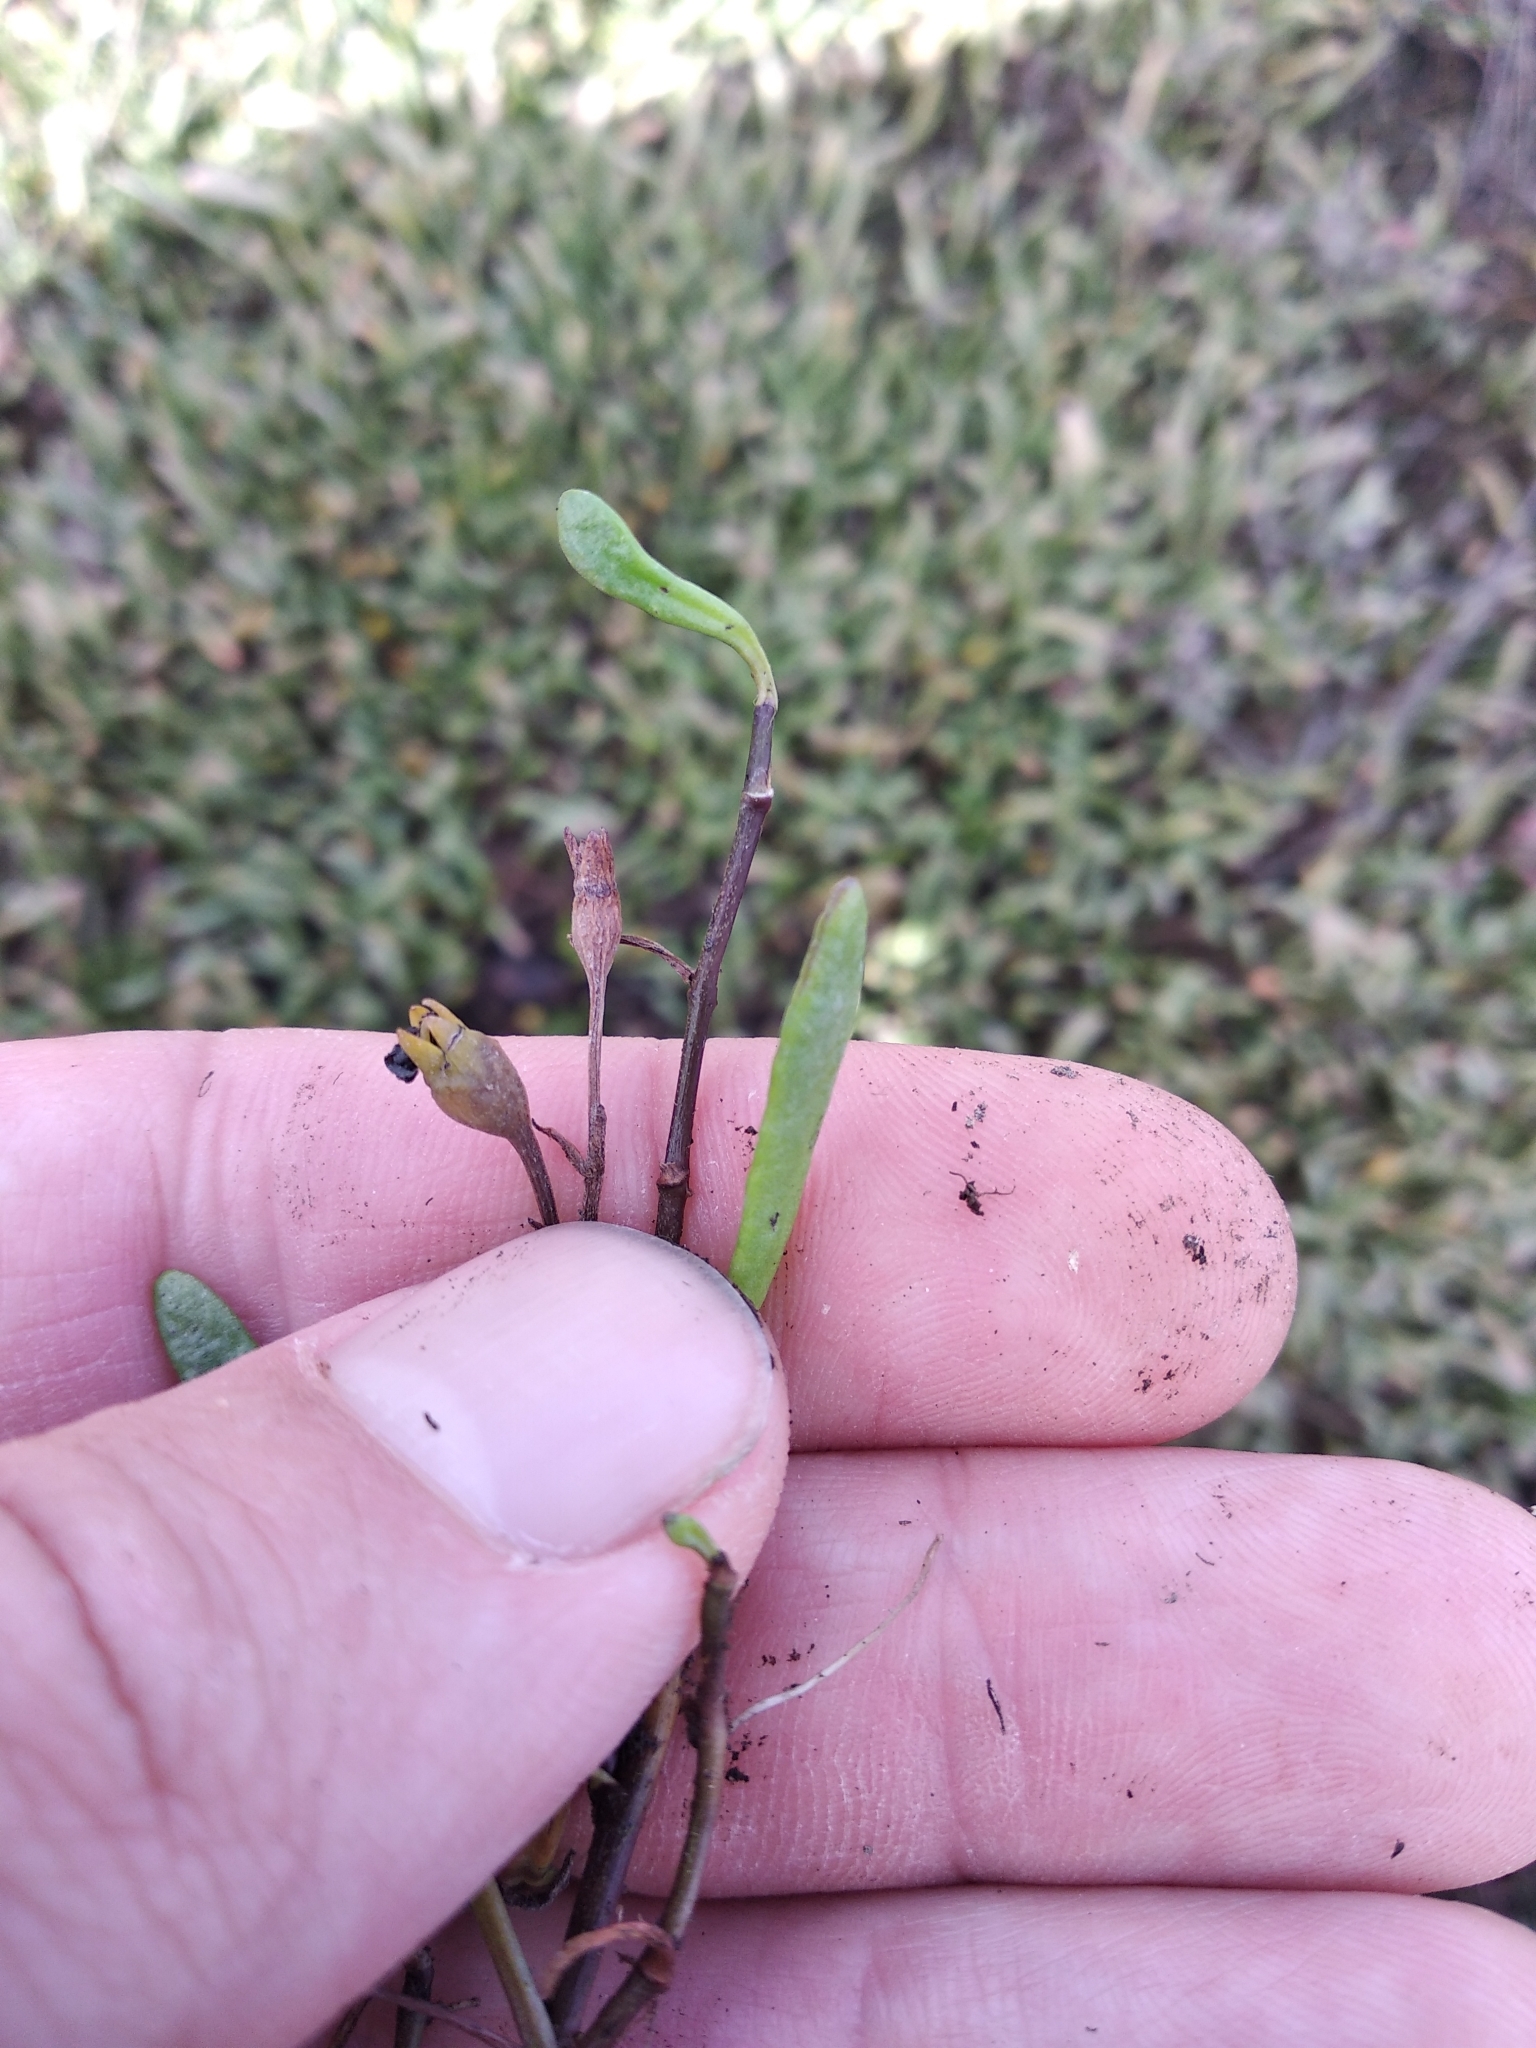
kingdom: Plantae
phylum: Tracheophyta
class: Magnoliopsida
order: Asterales
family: Goodeniaceae
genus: Goodenia
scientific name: Goodenia radicans
